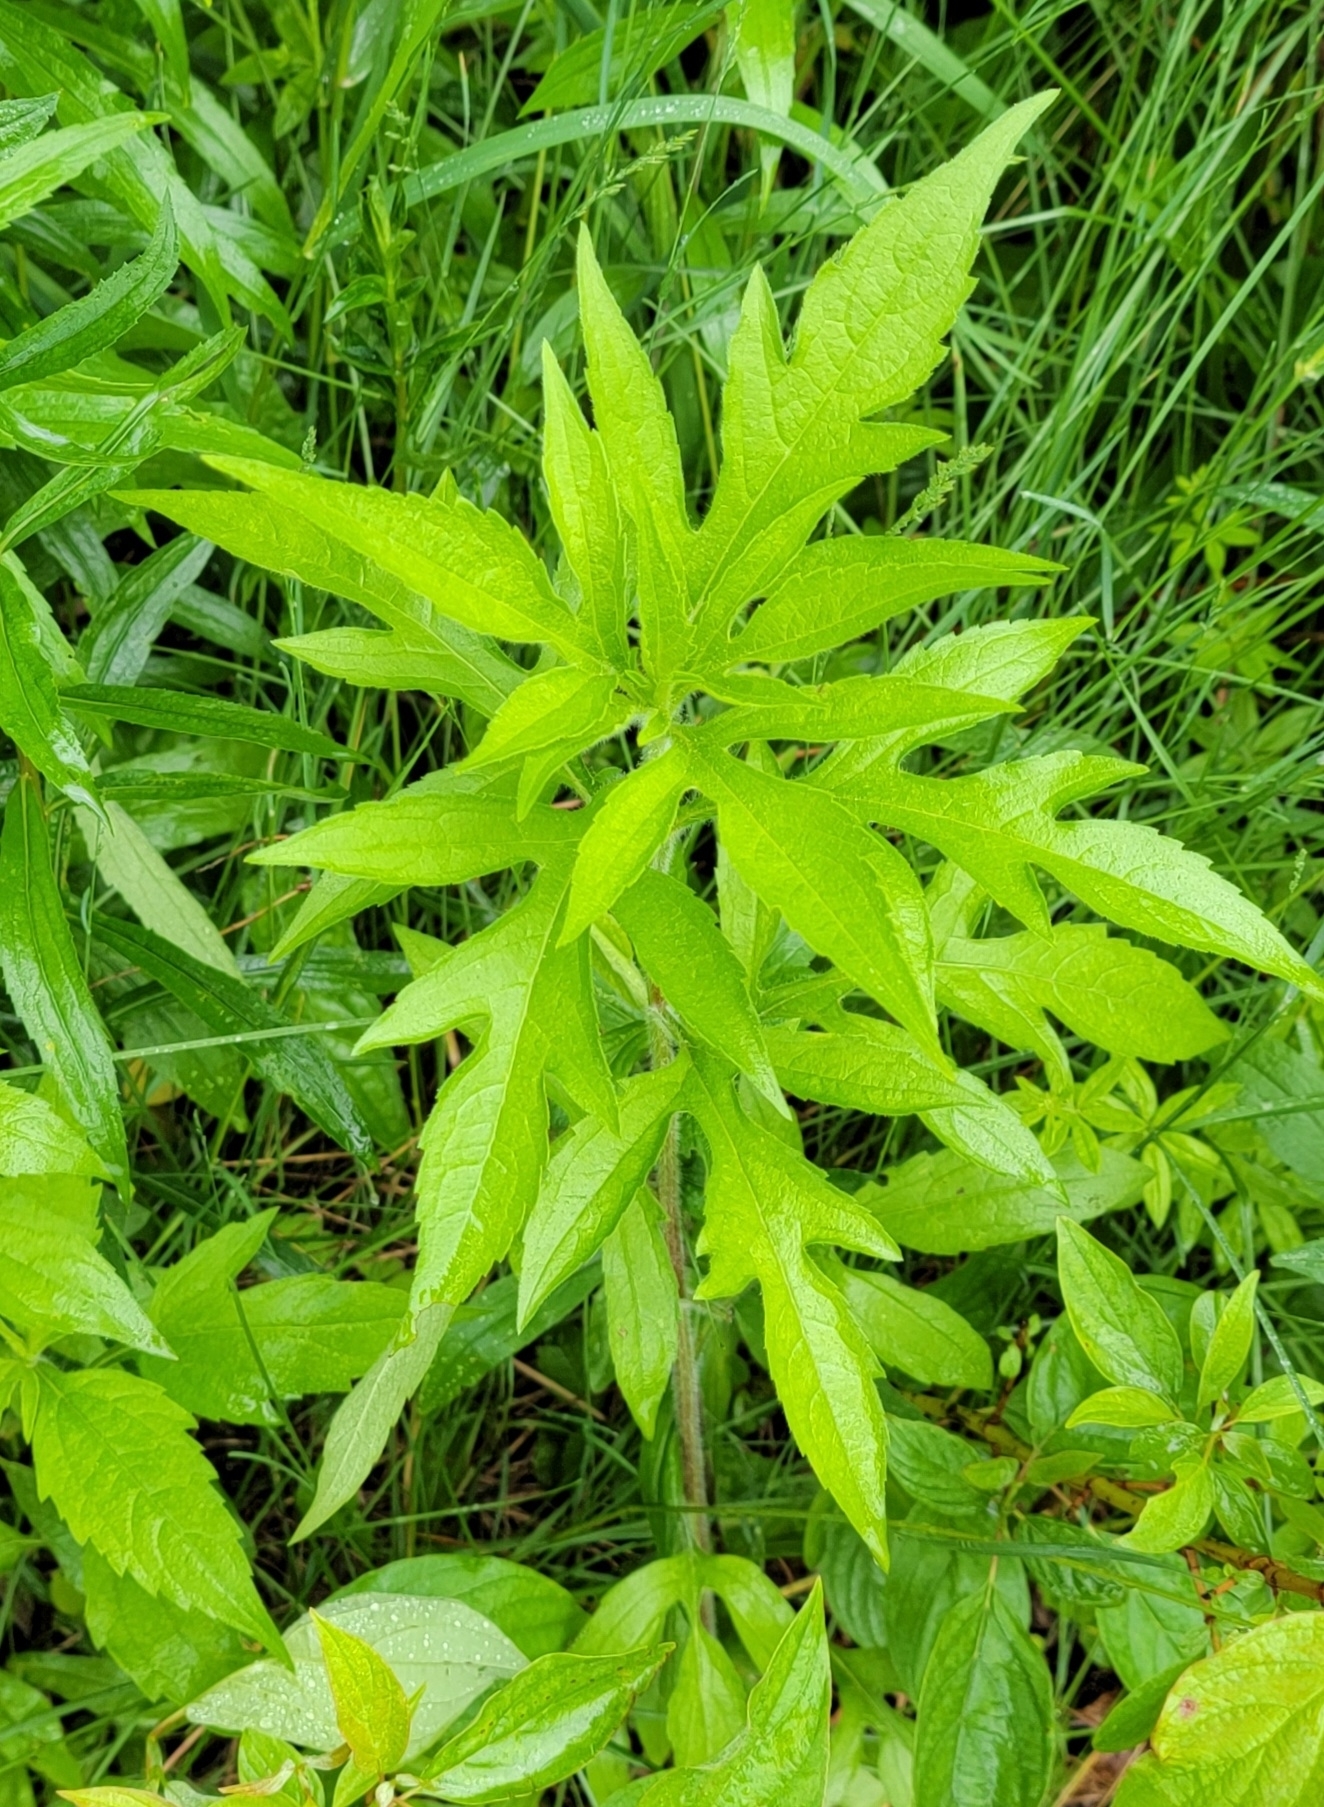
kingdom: Plantae
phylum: Tracheophyta
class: Magnoliopsida
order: Asterales
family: Asteraceae
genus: Ambrosia
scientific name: Ambrosia trifida
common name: Giant ragweed
